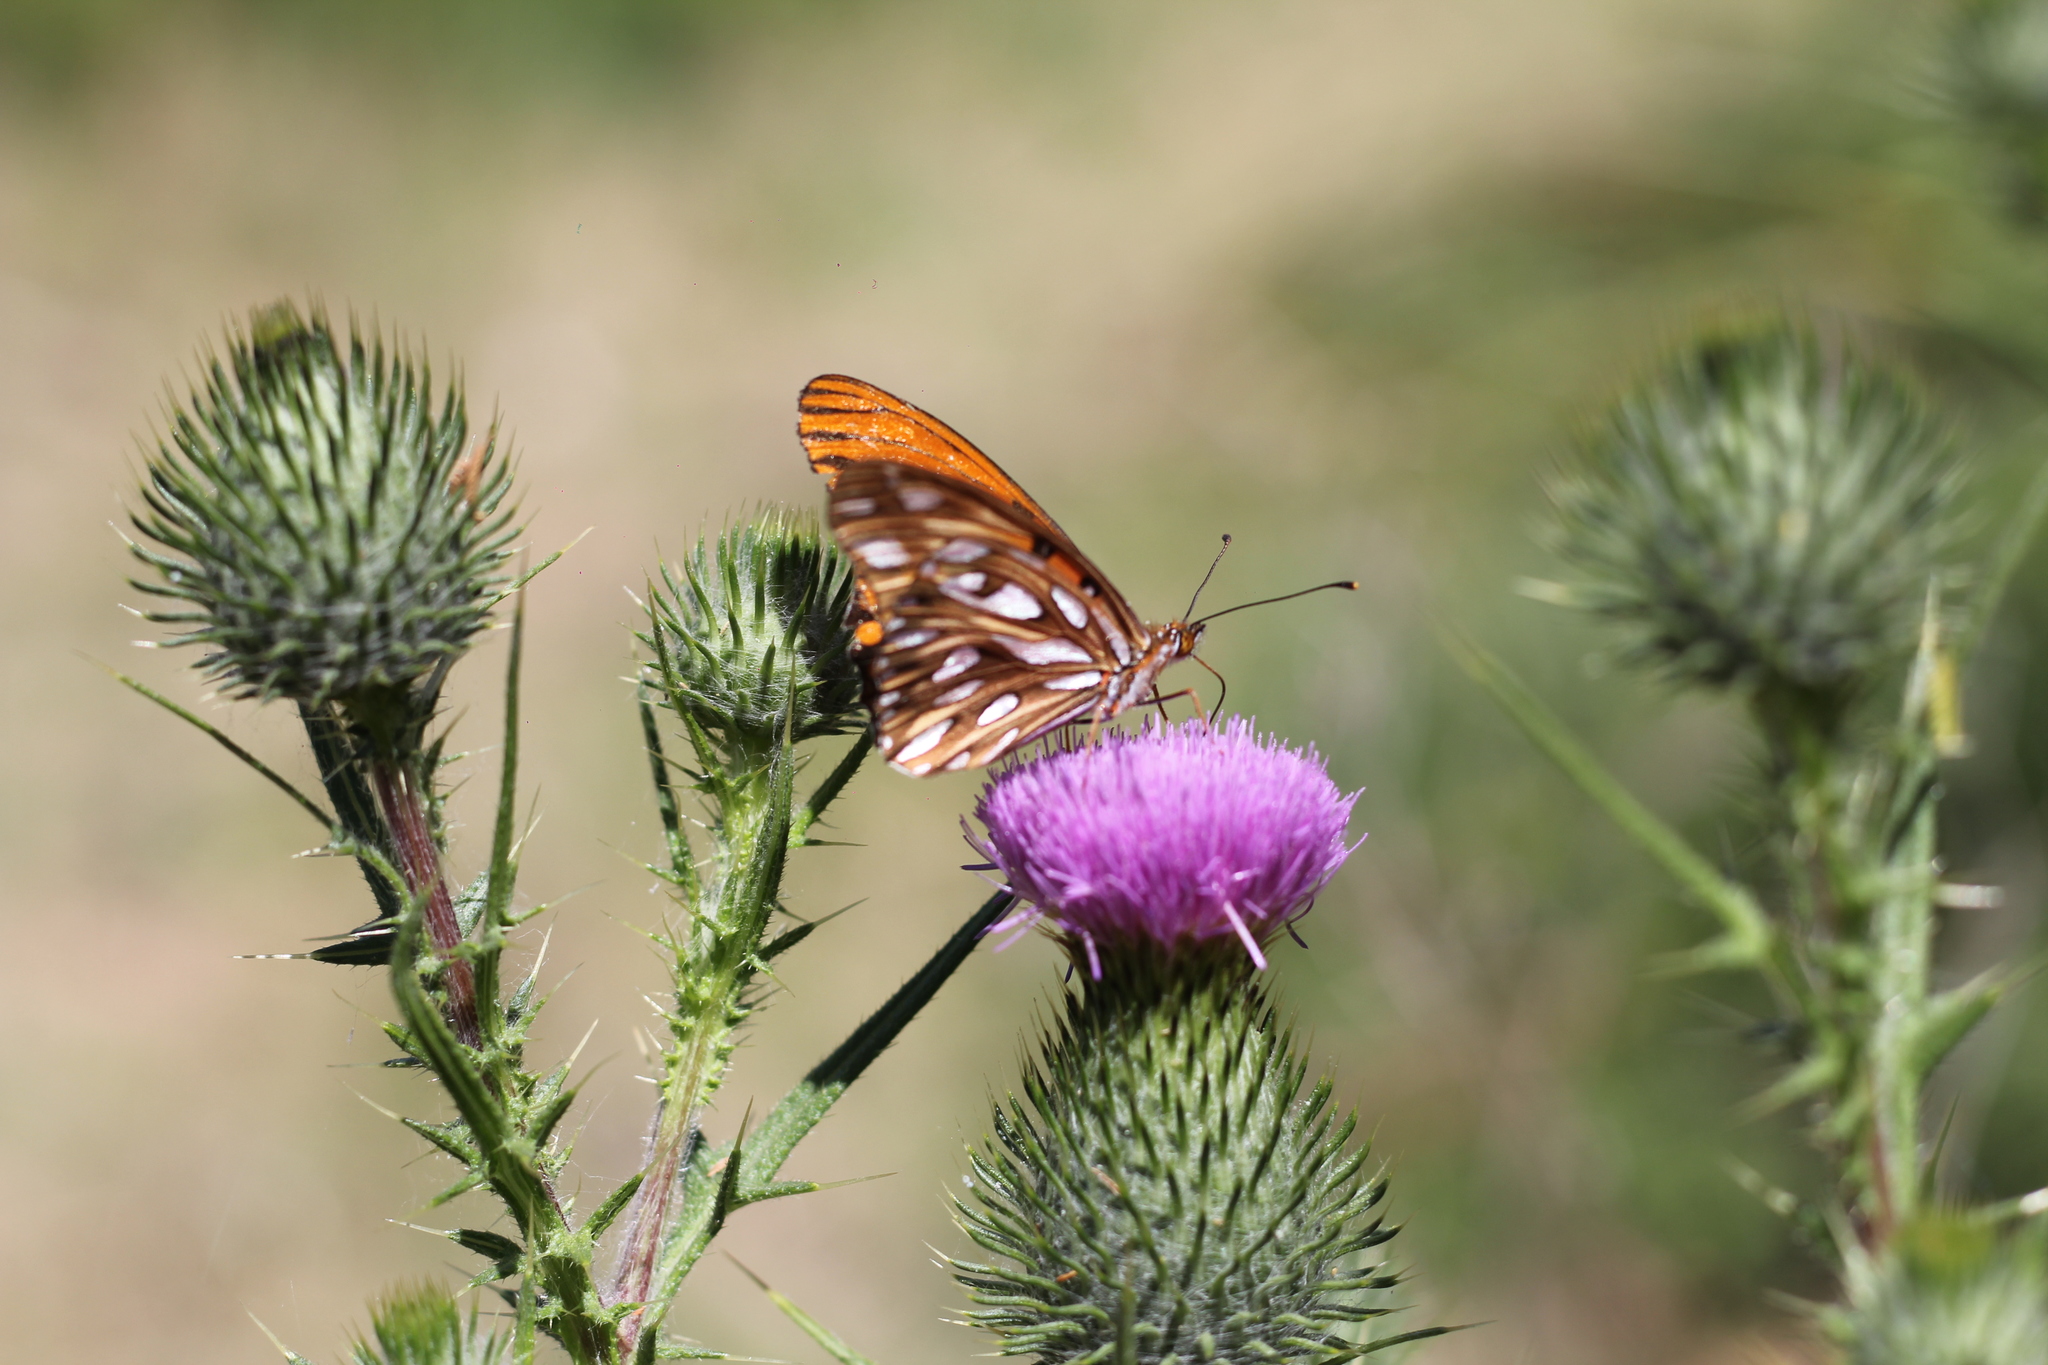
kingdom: Animalia
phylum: Arthropoda
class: Insecta
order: Lepidoptera
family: Nymphalidae
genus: Dione
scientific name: Dione vanillae
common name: Gulf fritillary
